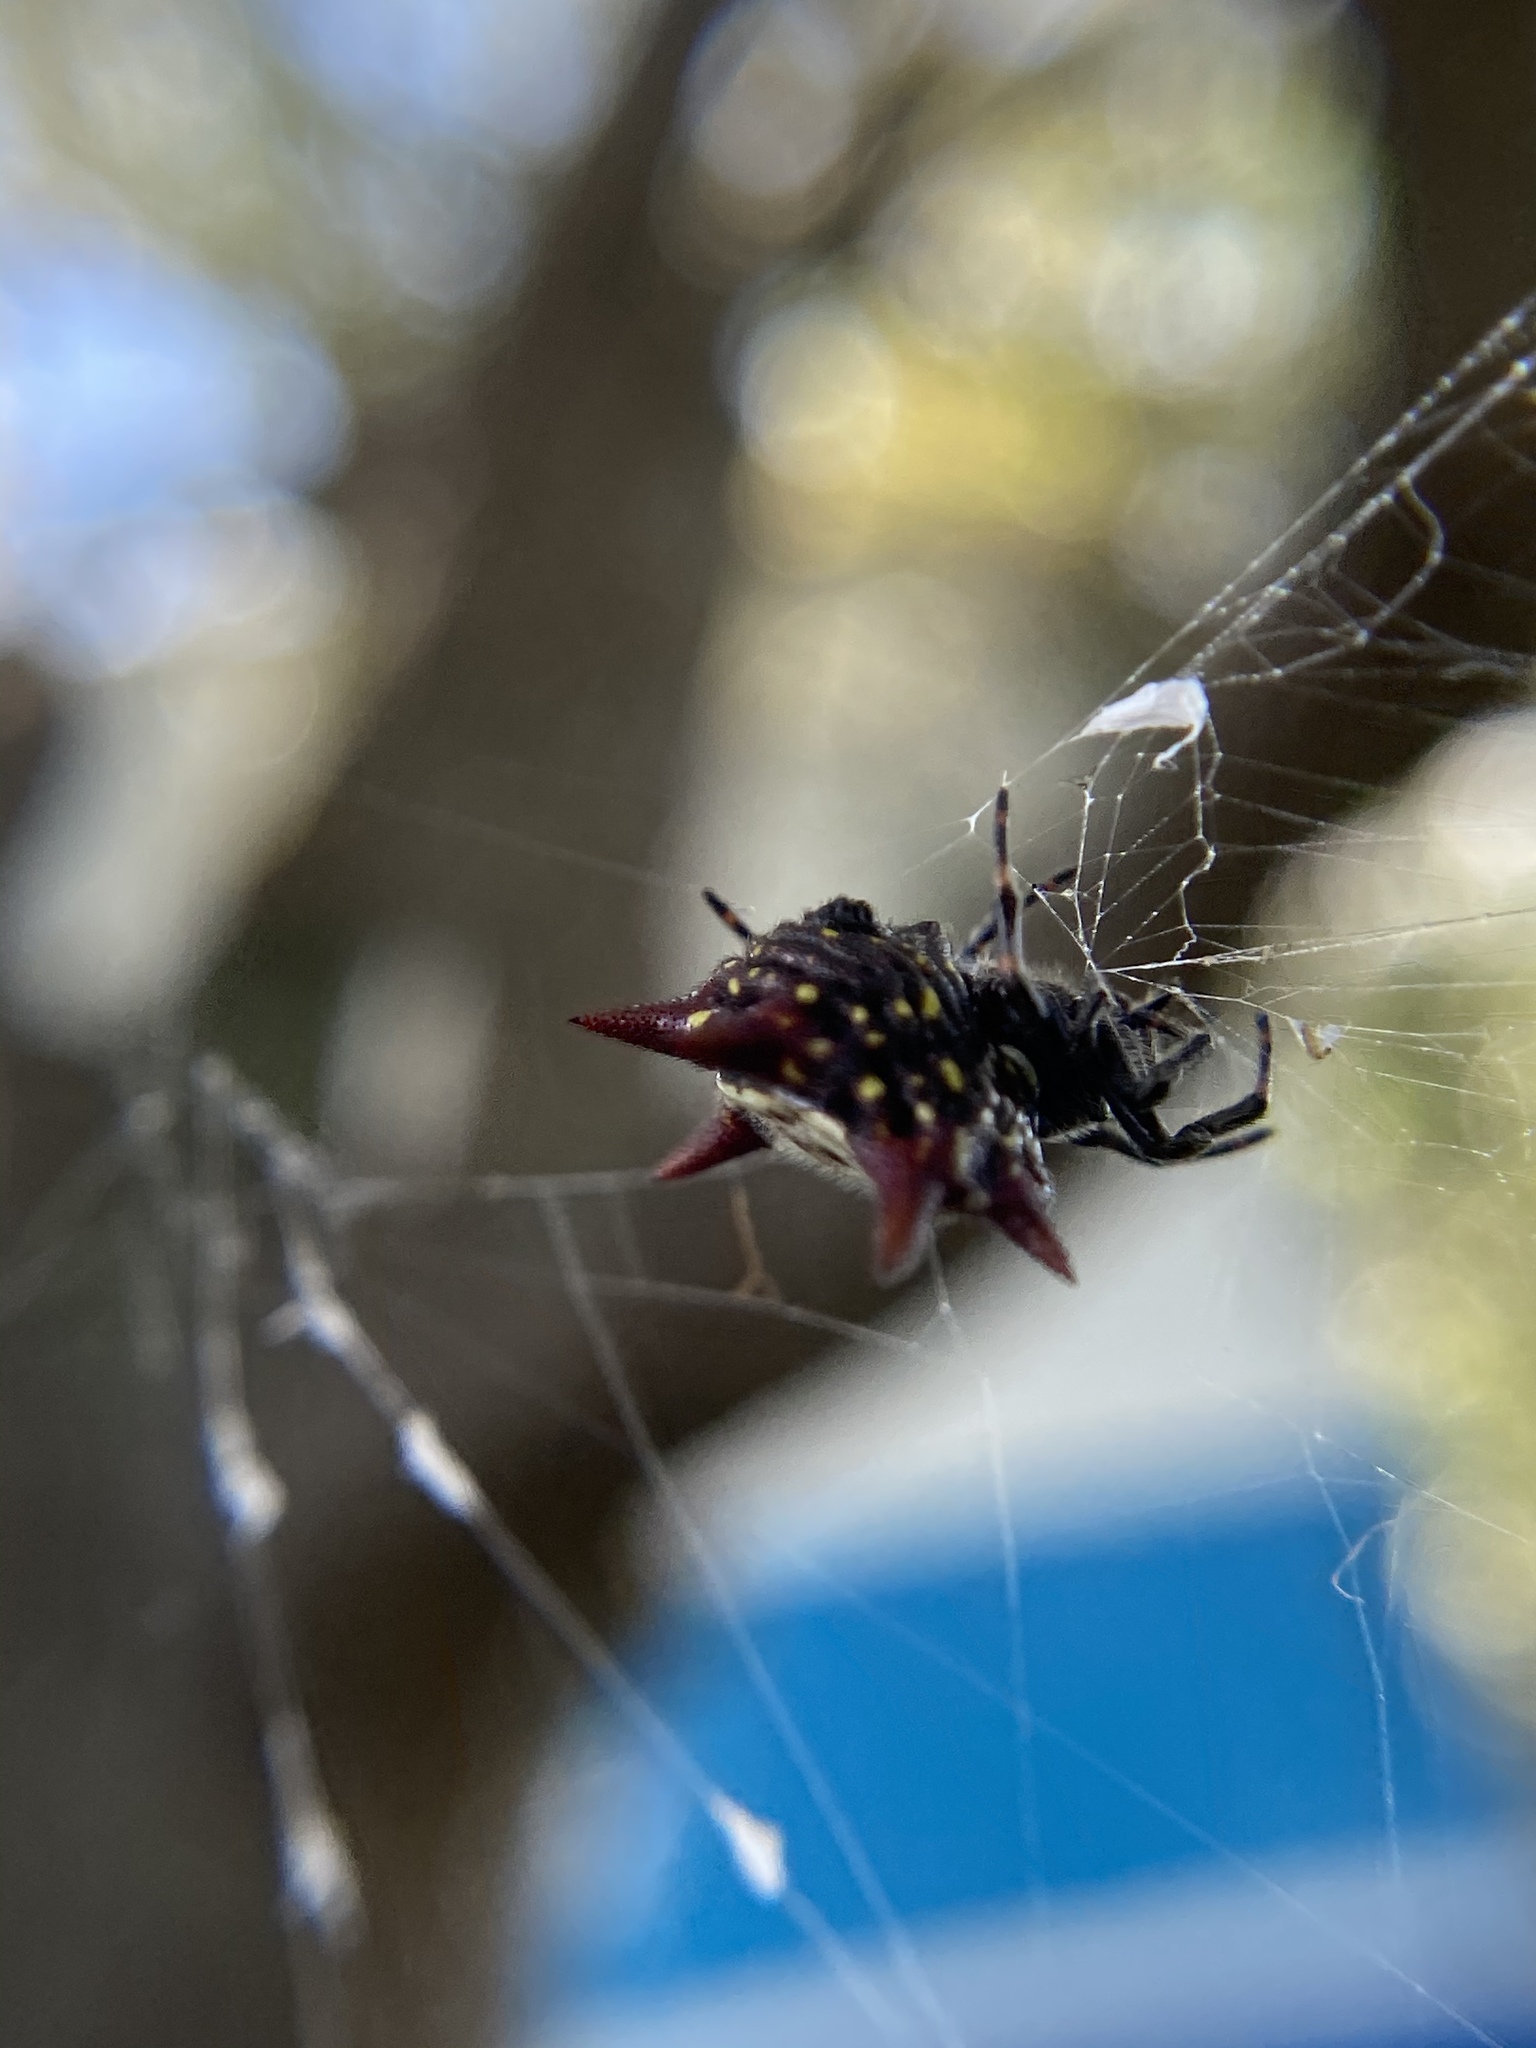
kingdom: Animalia
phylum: Arthropoda
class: Arachnida
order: Araneae
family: Araneidae
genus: Gasteracantha
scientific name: Gasteracantha cancriformis
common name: Orb weavers
